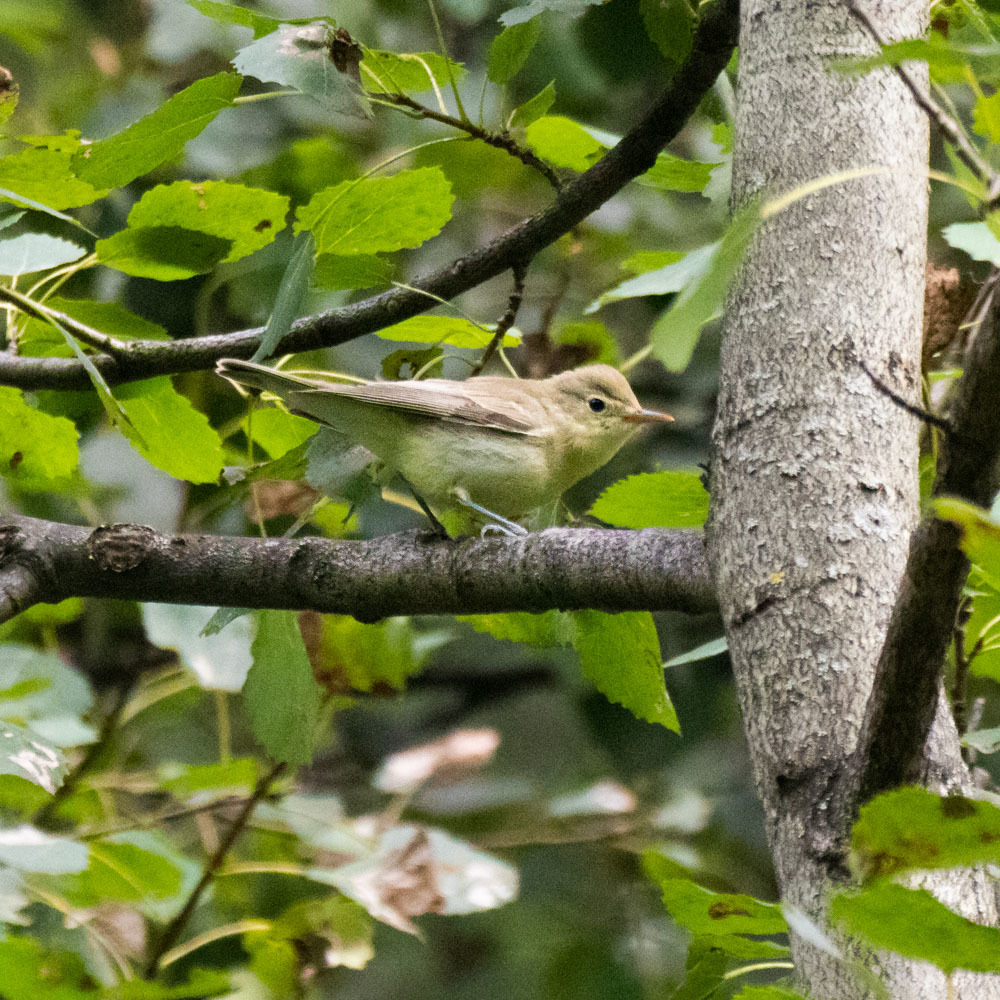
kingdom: Animalia
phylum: Chordata
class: Aves
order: Passeriformes
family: Acrocephalidae
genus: Hippolais
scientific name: Hippolais icterina
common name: Icterine warbler
